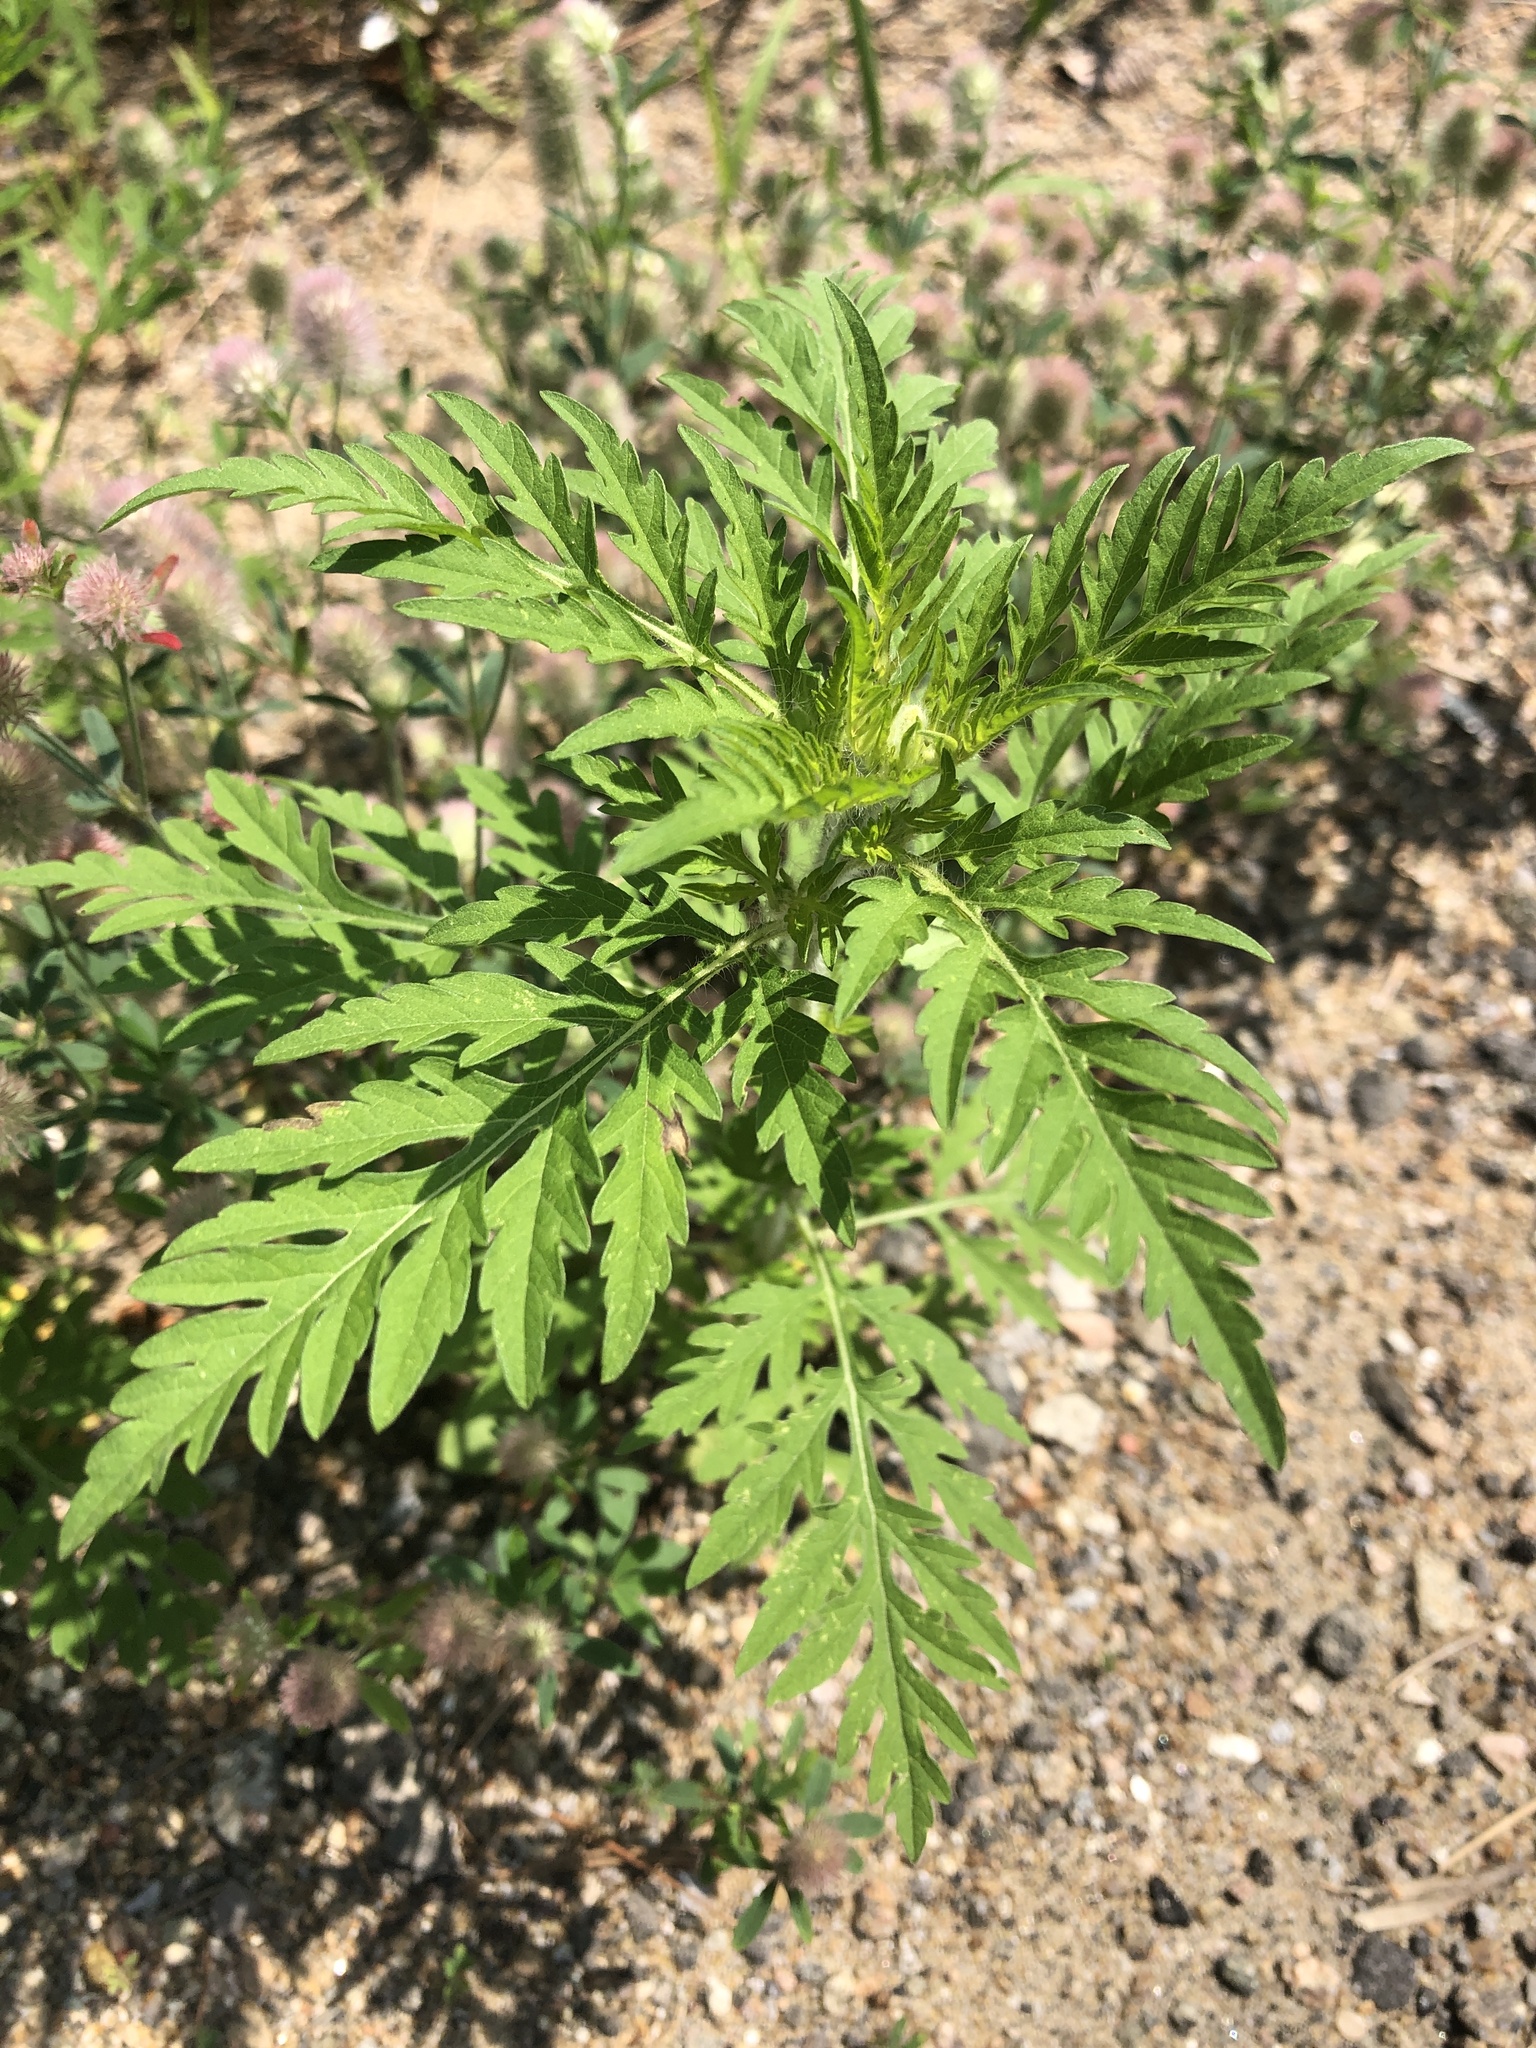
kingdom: Plantae
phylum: Tracheophyta
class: Magnoliopsida
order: Asterales
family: Asteraceae
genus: Ambrosia
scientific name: Ambrosia artemisiifolia
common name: Annual ragweed
